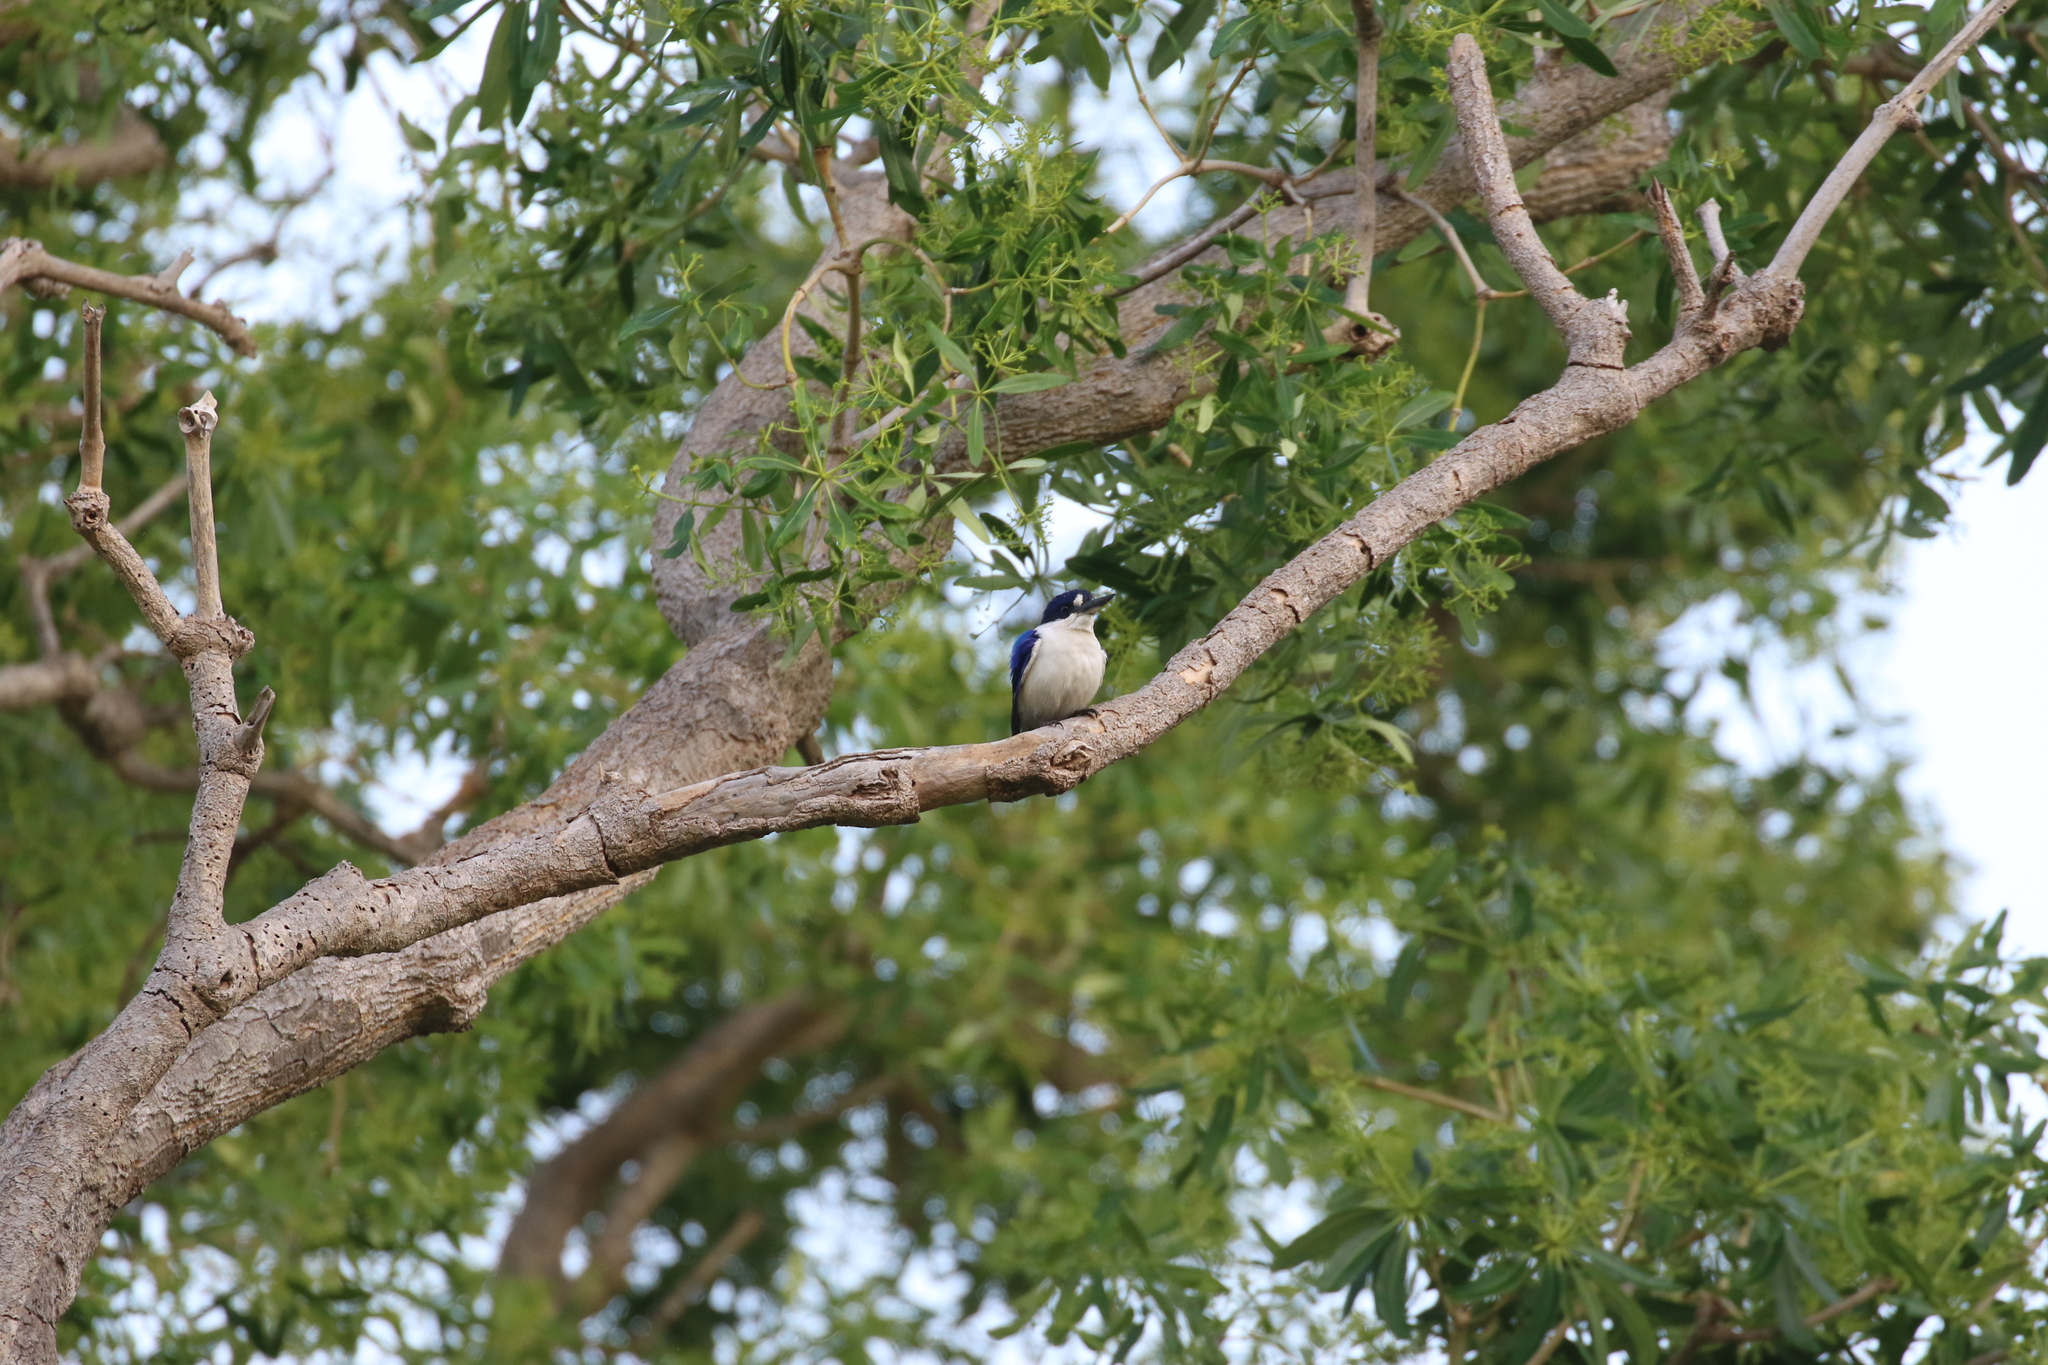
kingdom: Animalia
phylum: Chordata
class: Aves
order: Coraciiformes
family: Alcedinidae
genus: Todiramphus
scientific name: Todiramphus macleayii
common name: Forest kingfisher
